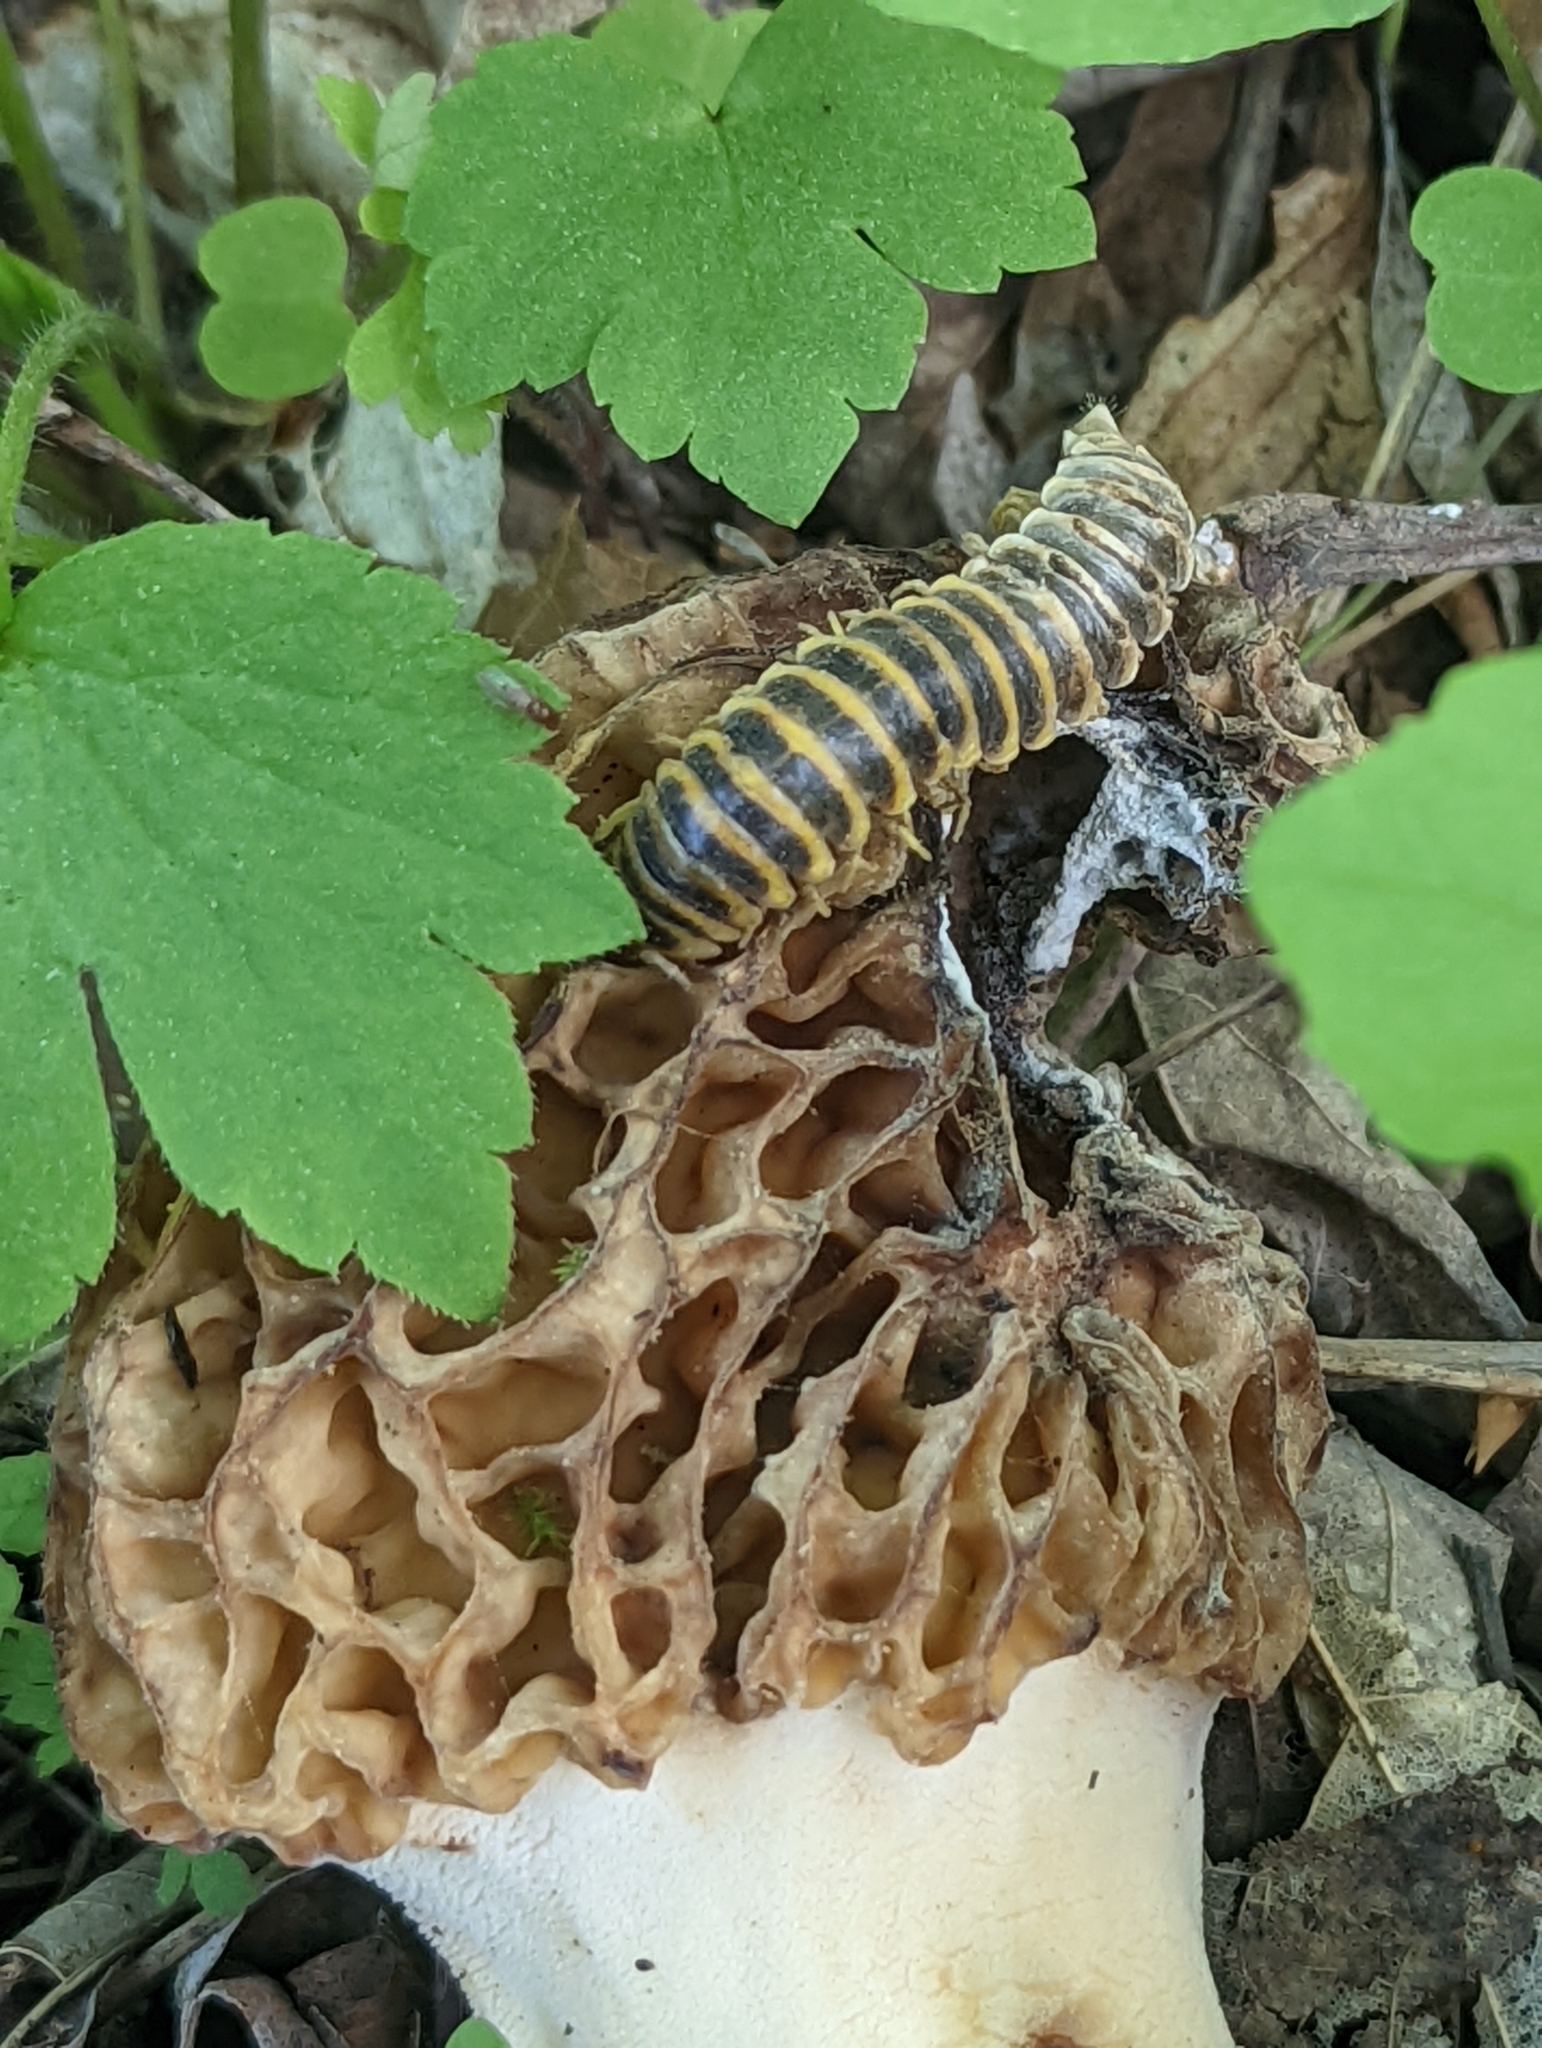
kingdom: Fungi
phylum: Entomophthoromycota
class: Entomophthoromycetes
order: Entomophthorales
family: Entomophthoraceae
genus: Arthrophaga
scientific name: Arthrophaga myriapodina
